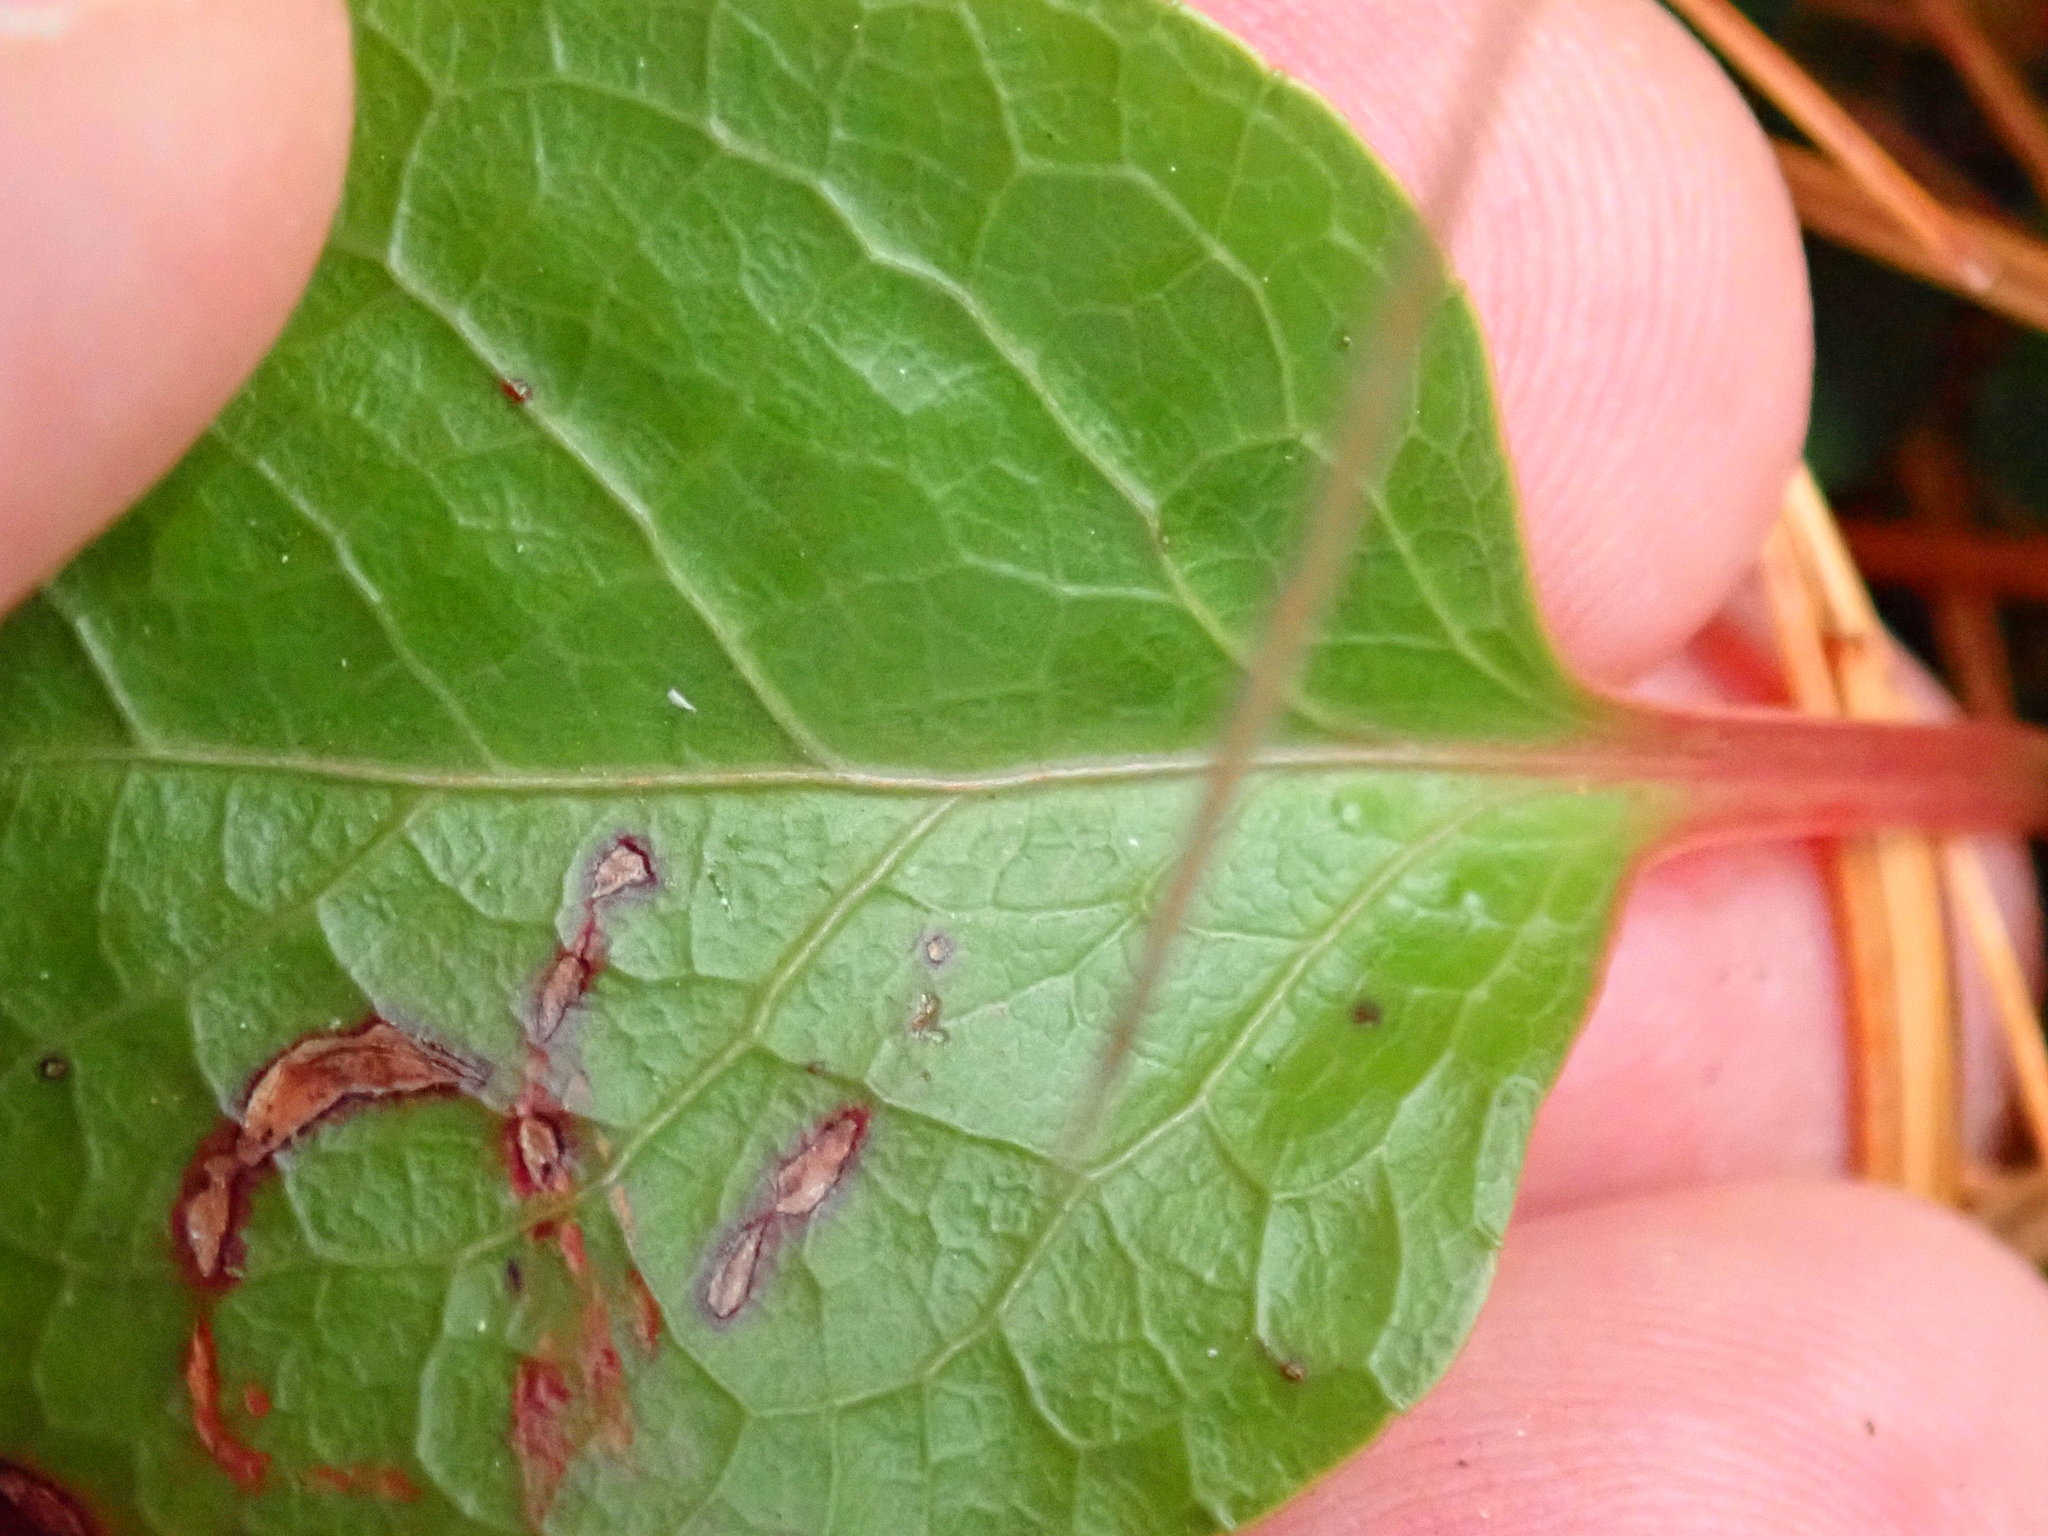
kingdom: Plantae
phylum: Tracheophyta
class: Magnoliopsida
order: Ericales
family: Ericaceae
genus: Pyrola
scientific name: Pyrola americana
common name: American wintergreen
